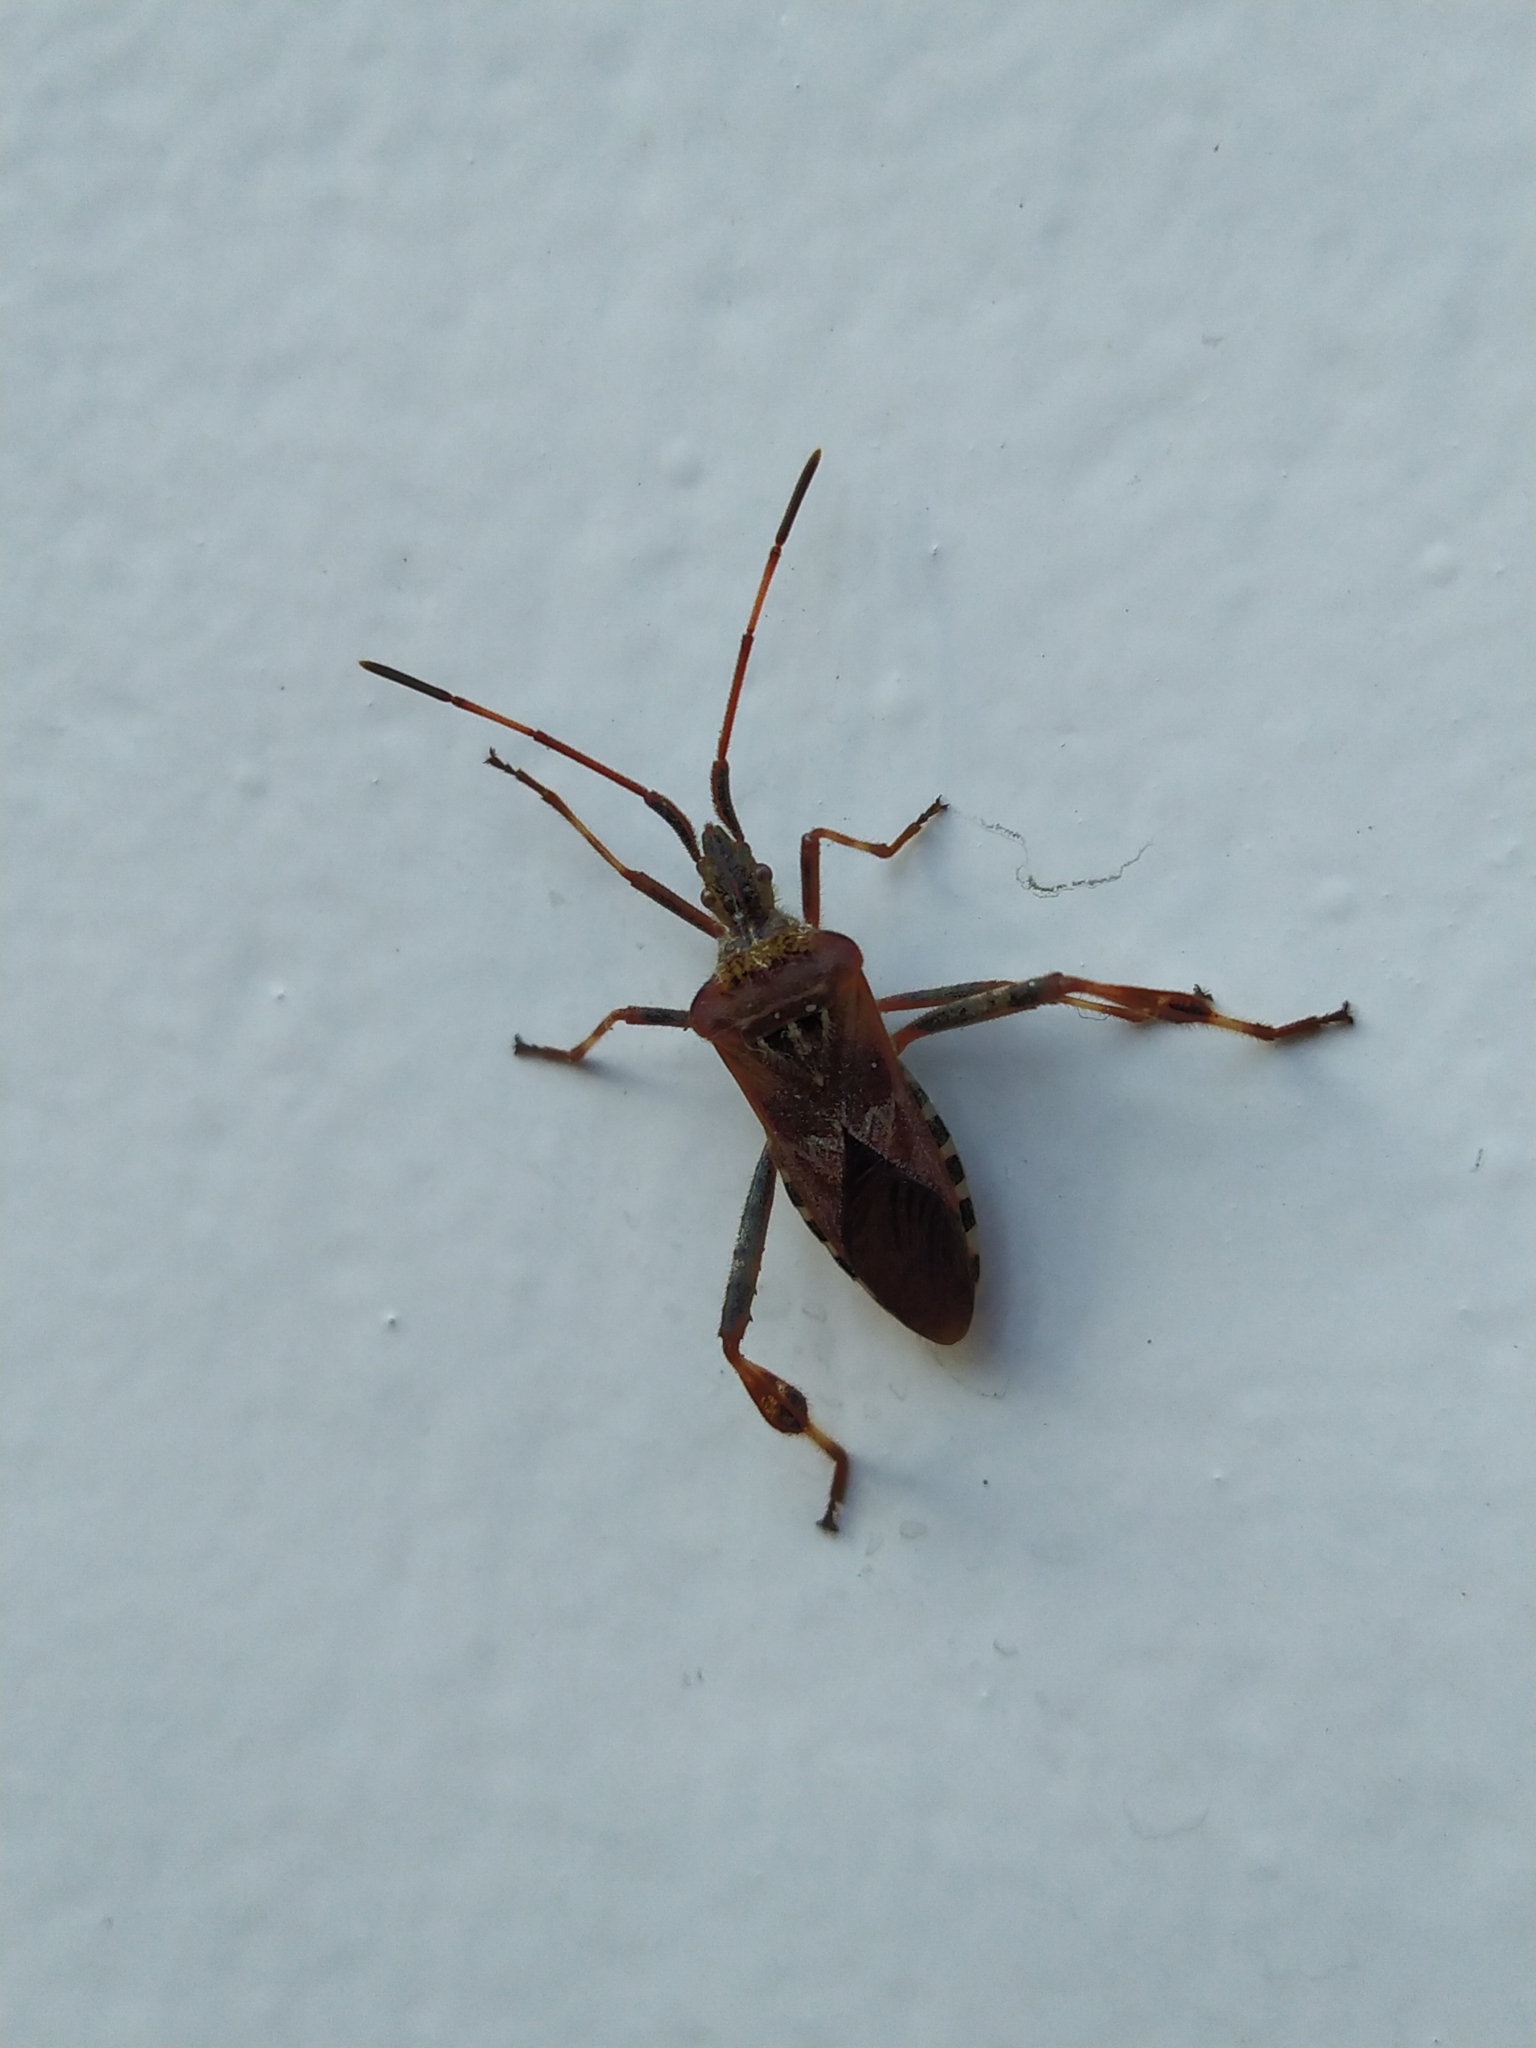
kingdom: Animalia
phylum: Arthropoda
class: Insecta
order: Hemiptera
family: Coreidae
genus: Leptoglossus
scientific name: Leptoglossus occidentalis
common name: Western conifer-seed bug
